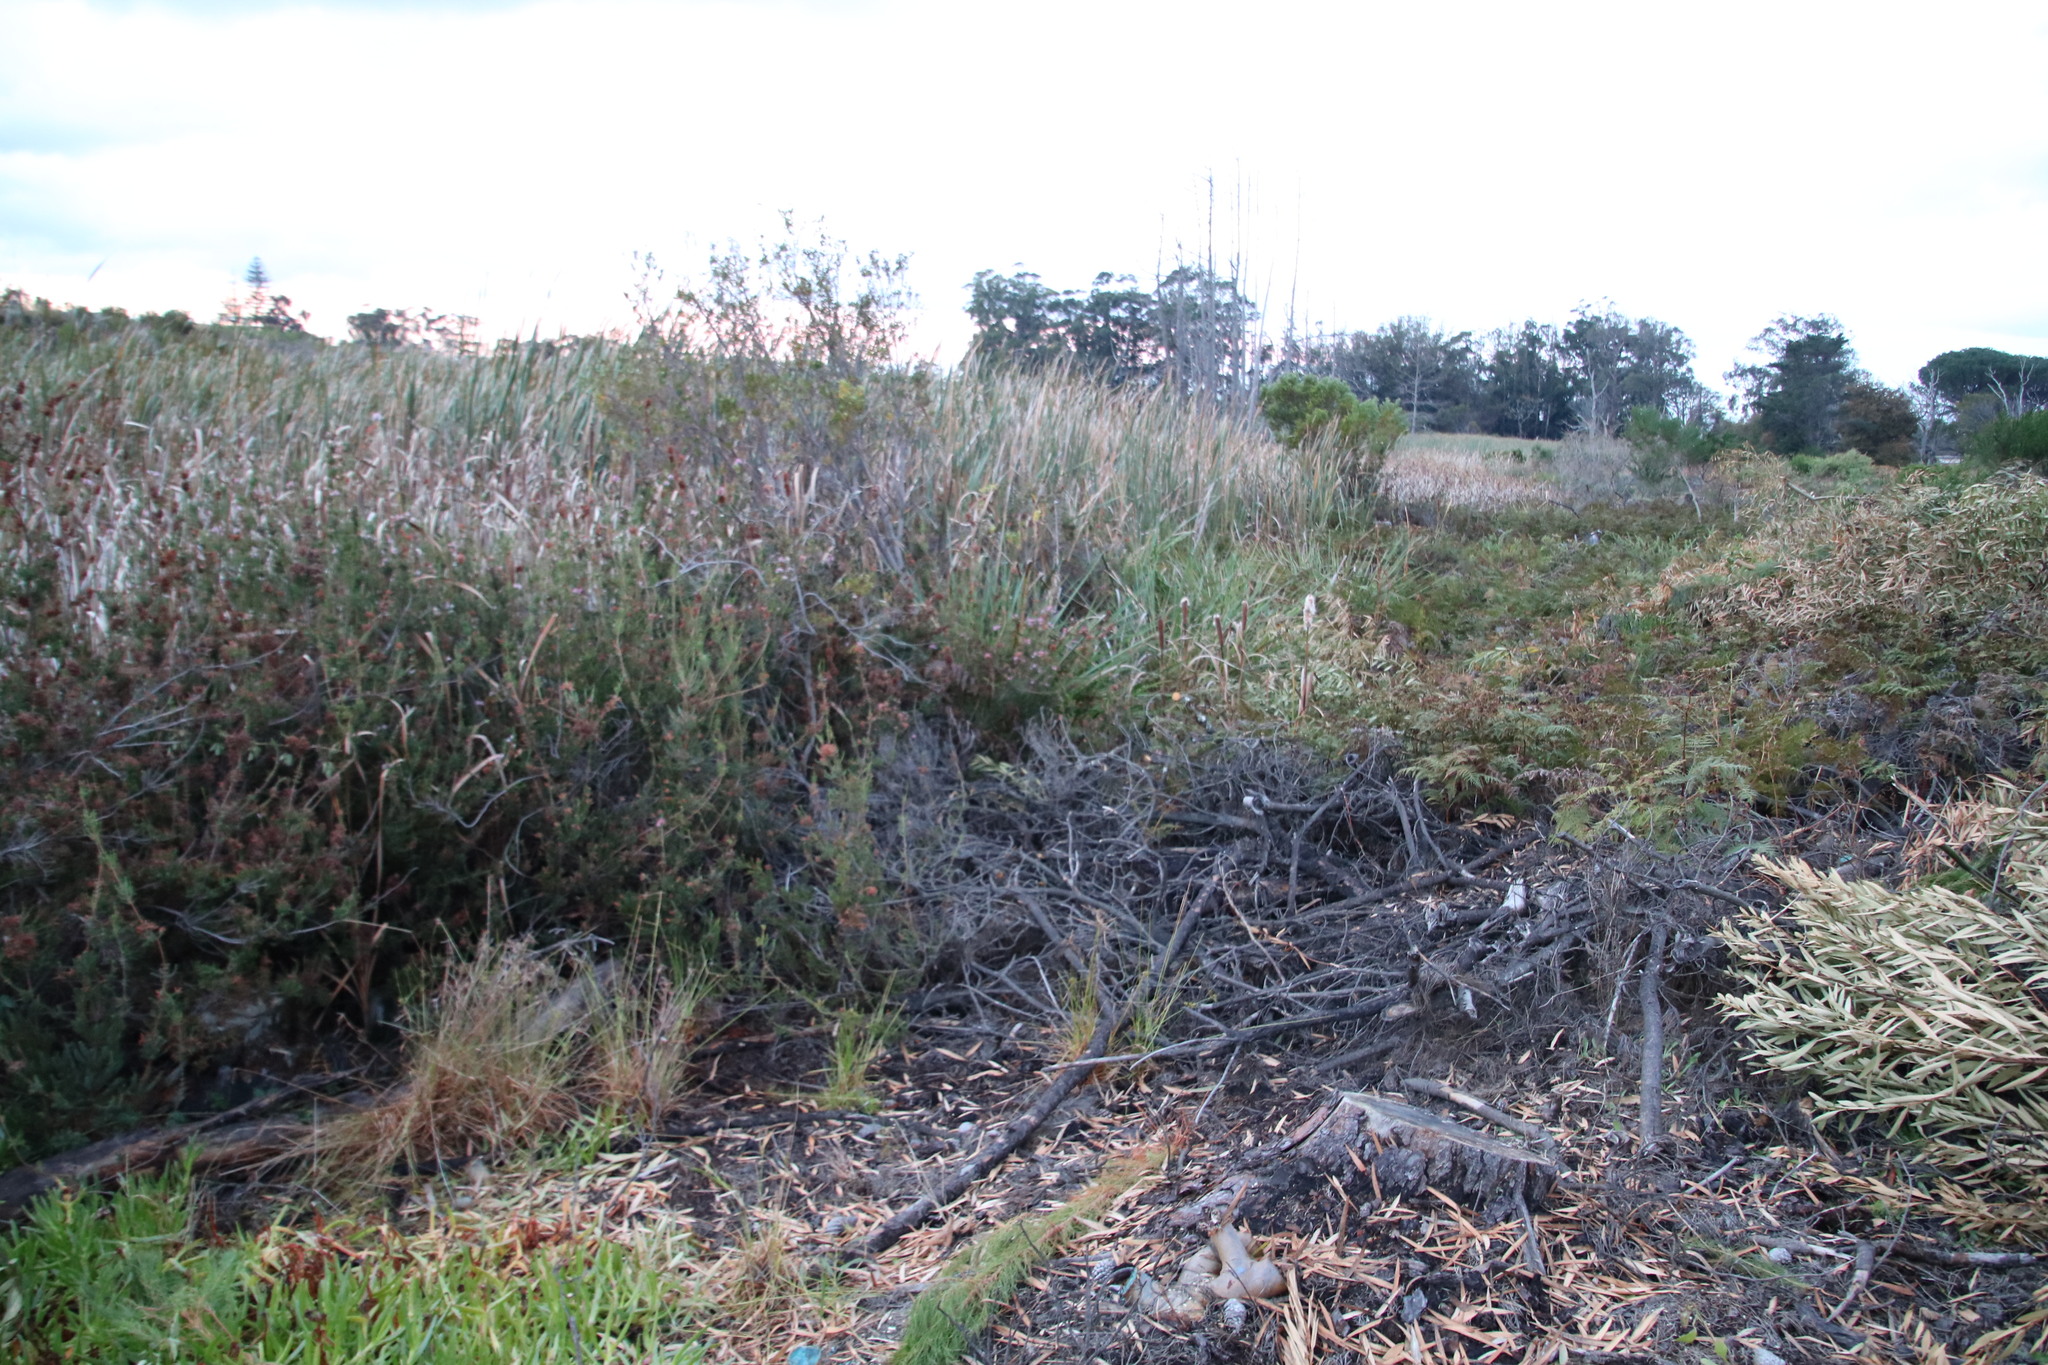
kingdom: Plantae
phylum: Tracheophyta
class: Magnoliopsida
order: Ericales
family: Ericaceae
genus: Erica
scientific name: Erica verticillata
